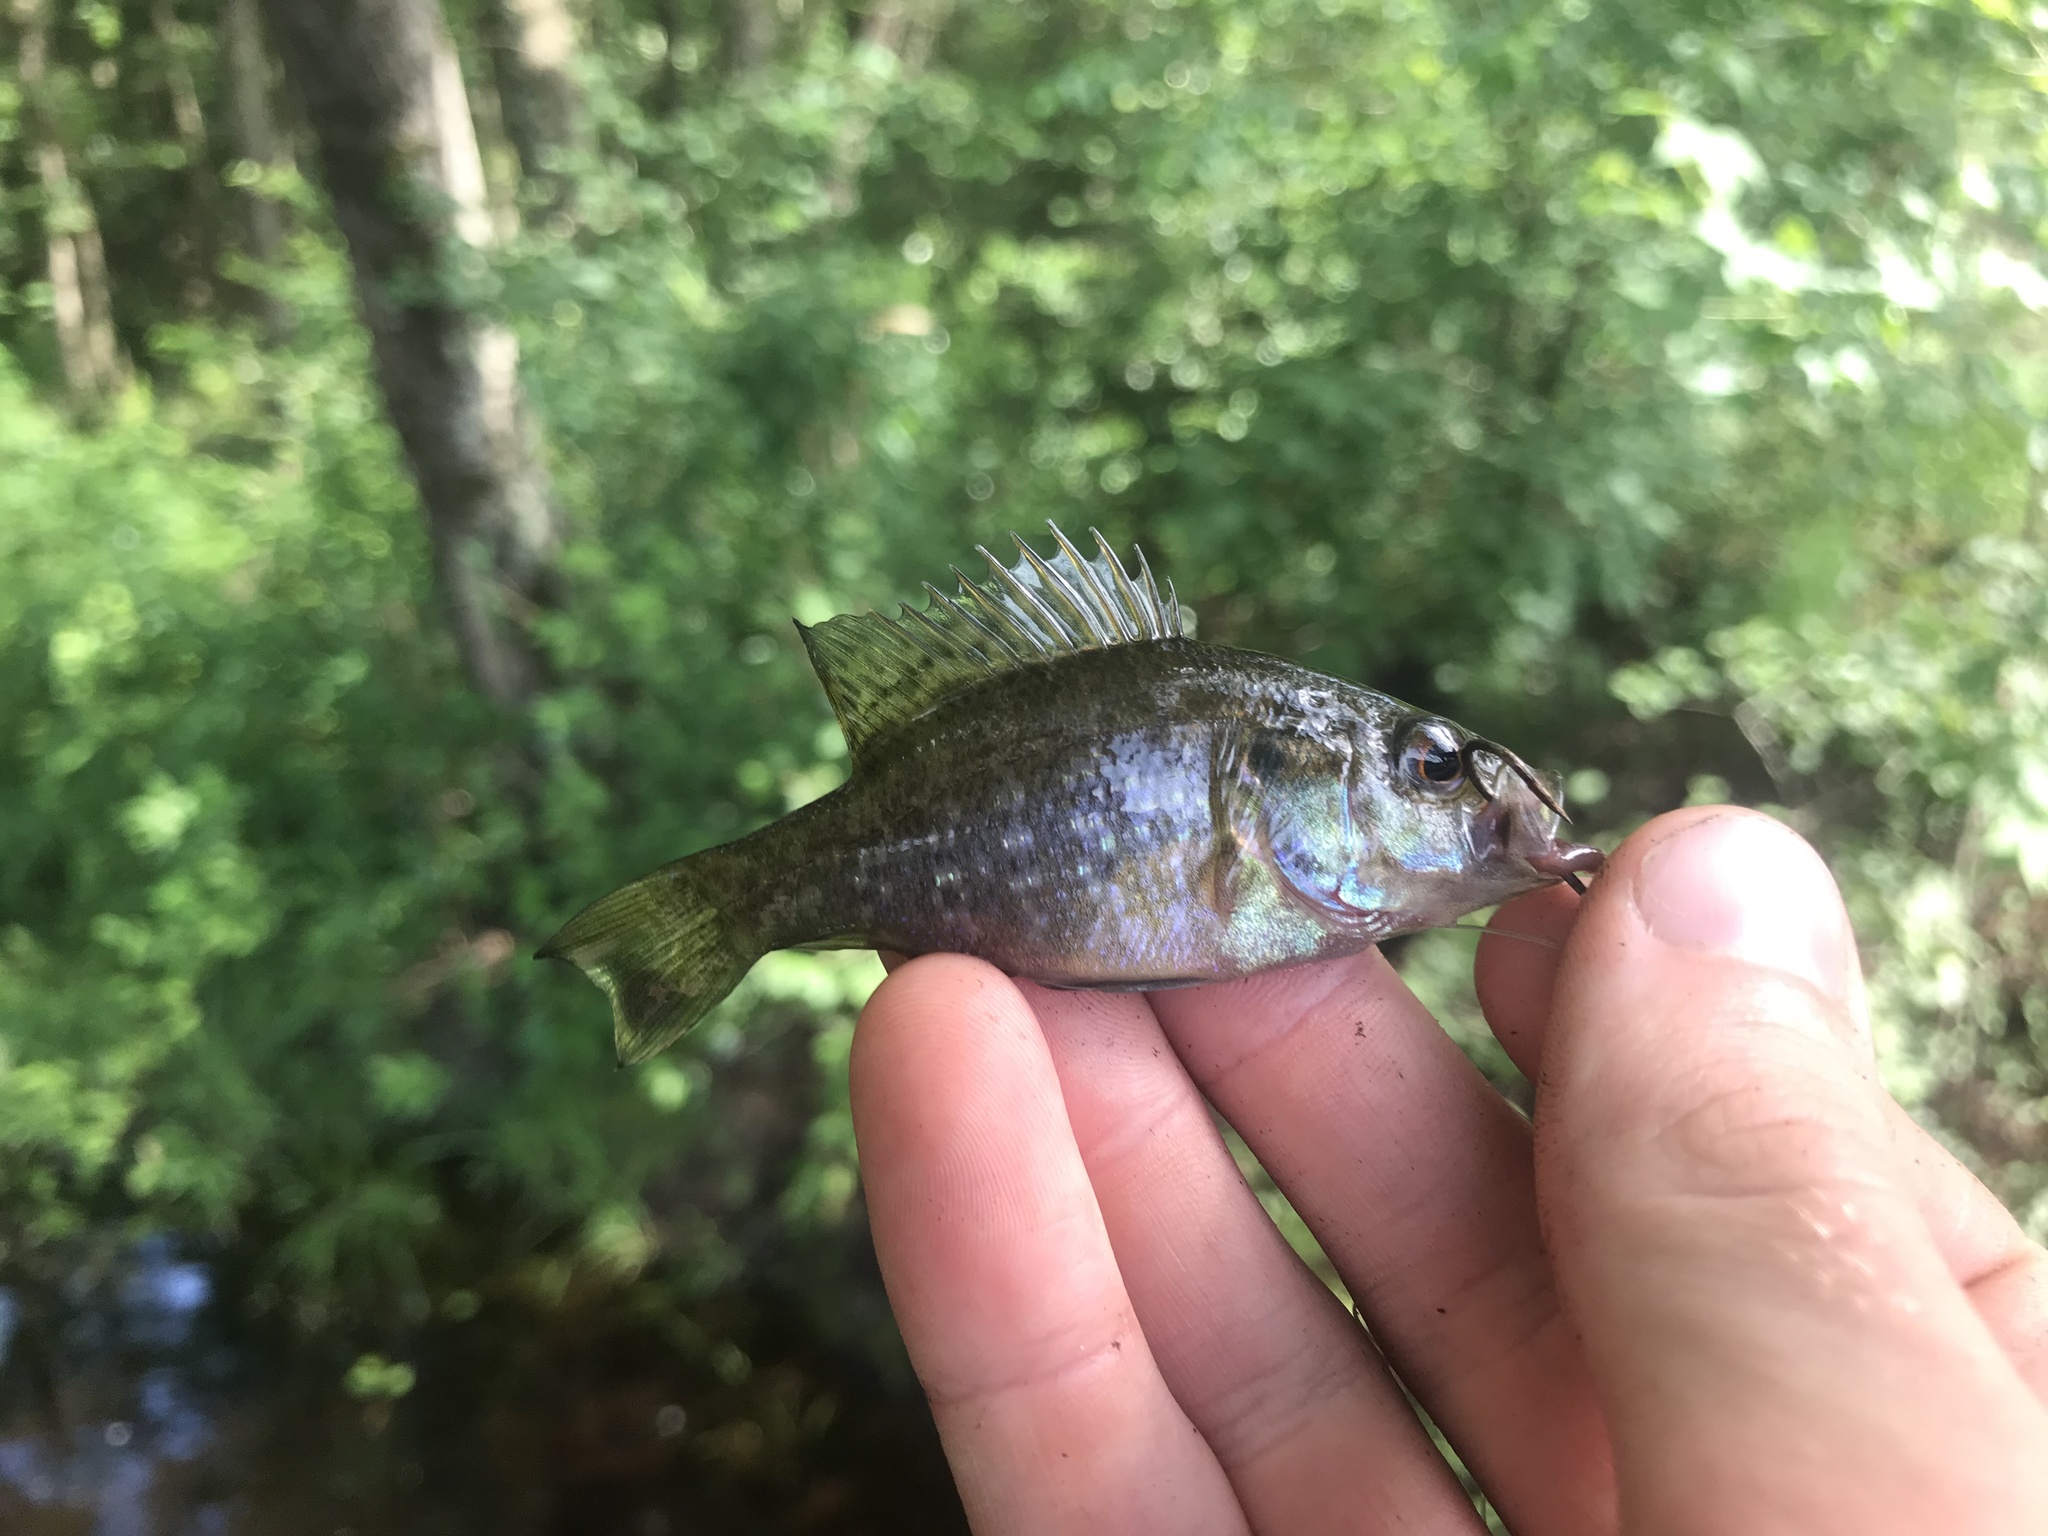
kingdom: Animalia
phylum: Chordata
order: Perciformes
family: Centrarchidae
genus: Lepomis
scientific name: Lepomis gulosus
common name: Warmouth
